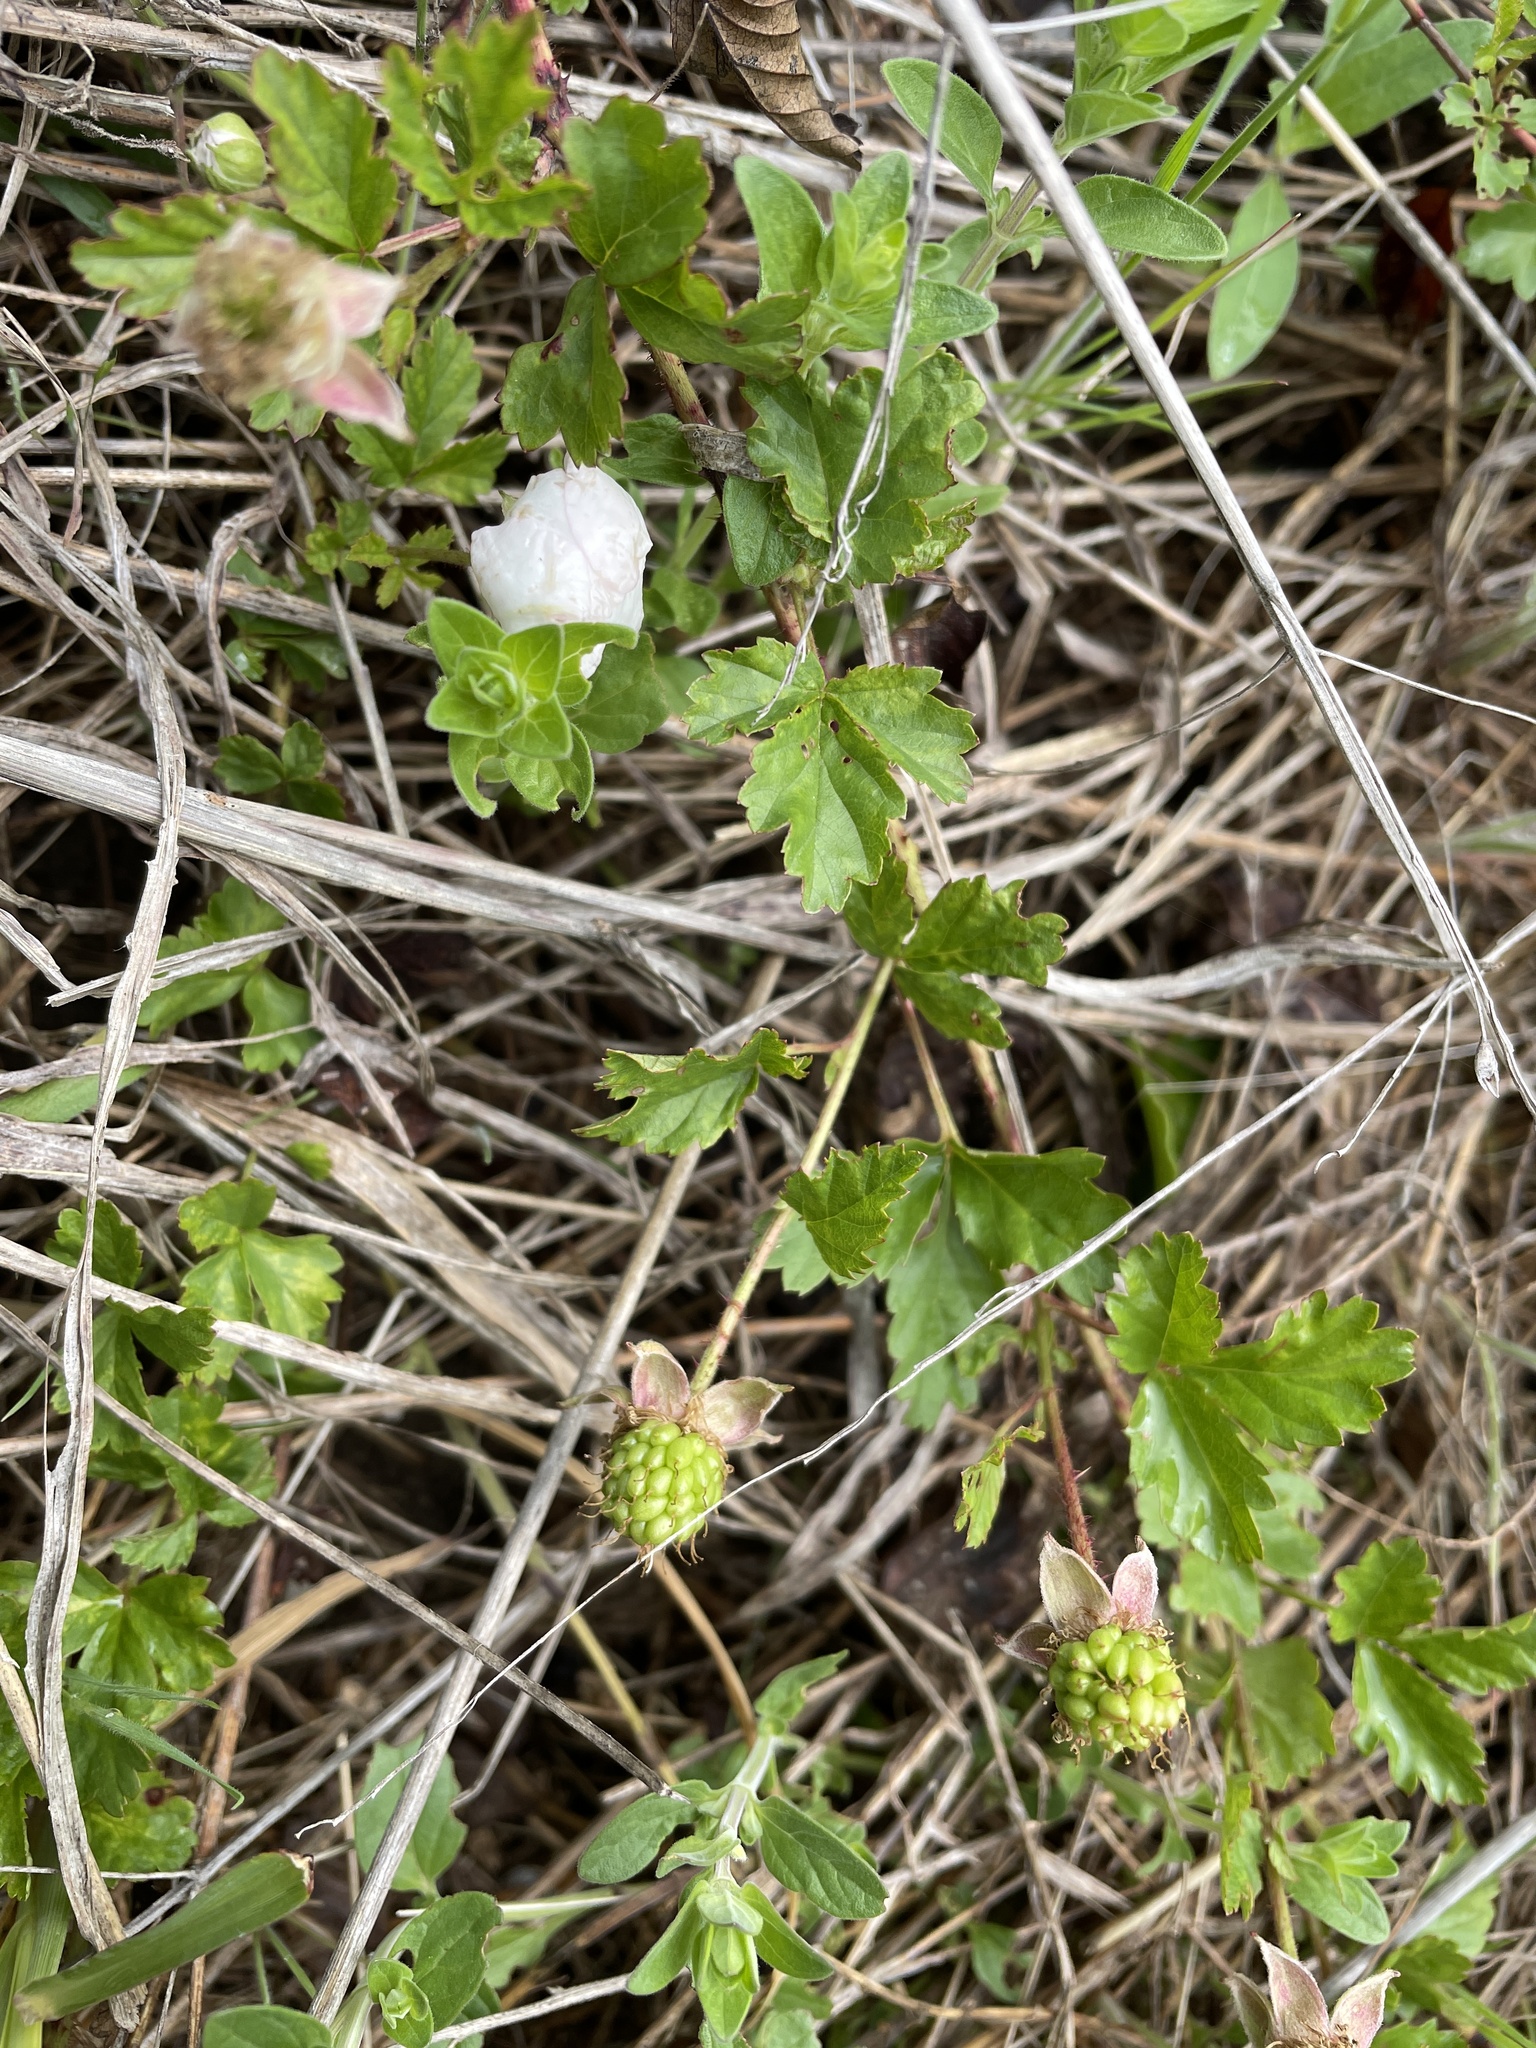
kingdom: Plantae
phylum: Tracheophyta
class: Magnoliopsida
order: Rosales
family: Rosaceae
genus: Rubus
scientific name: Rubus trivialis
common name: Southern dewberry
